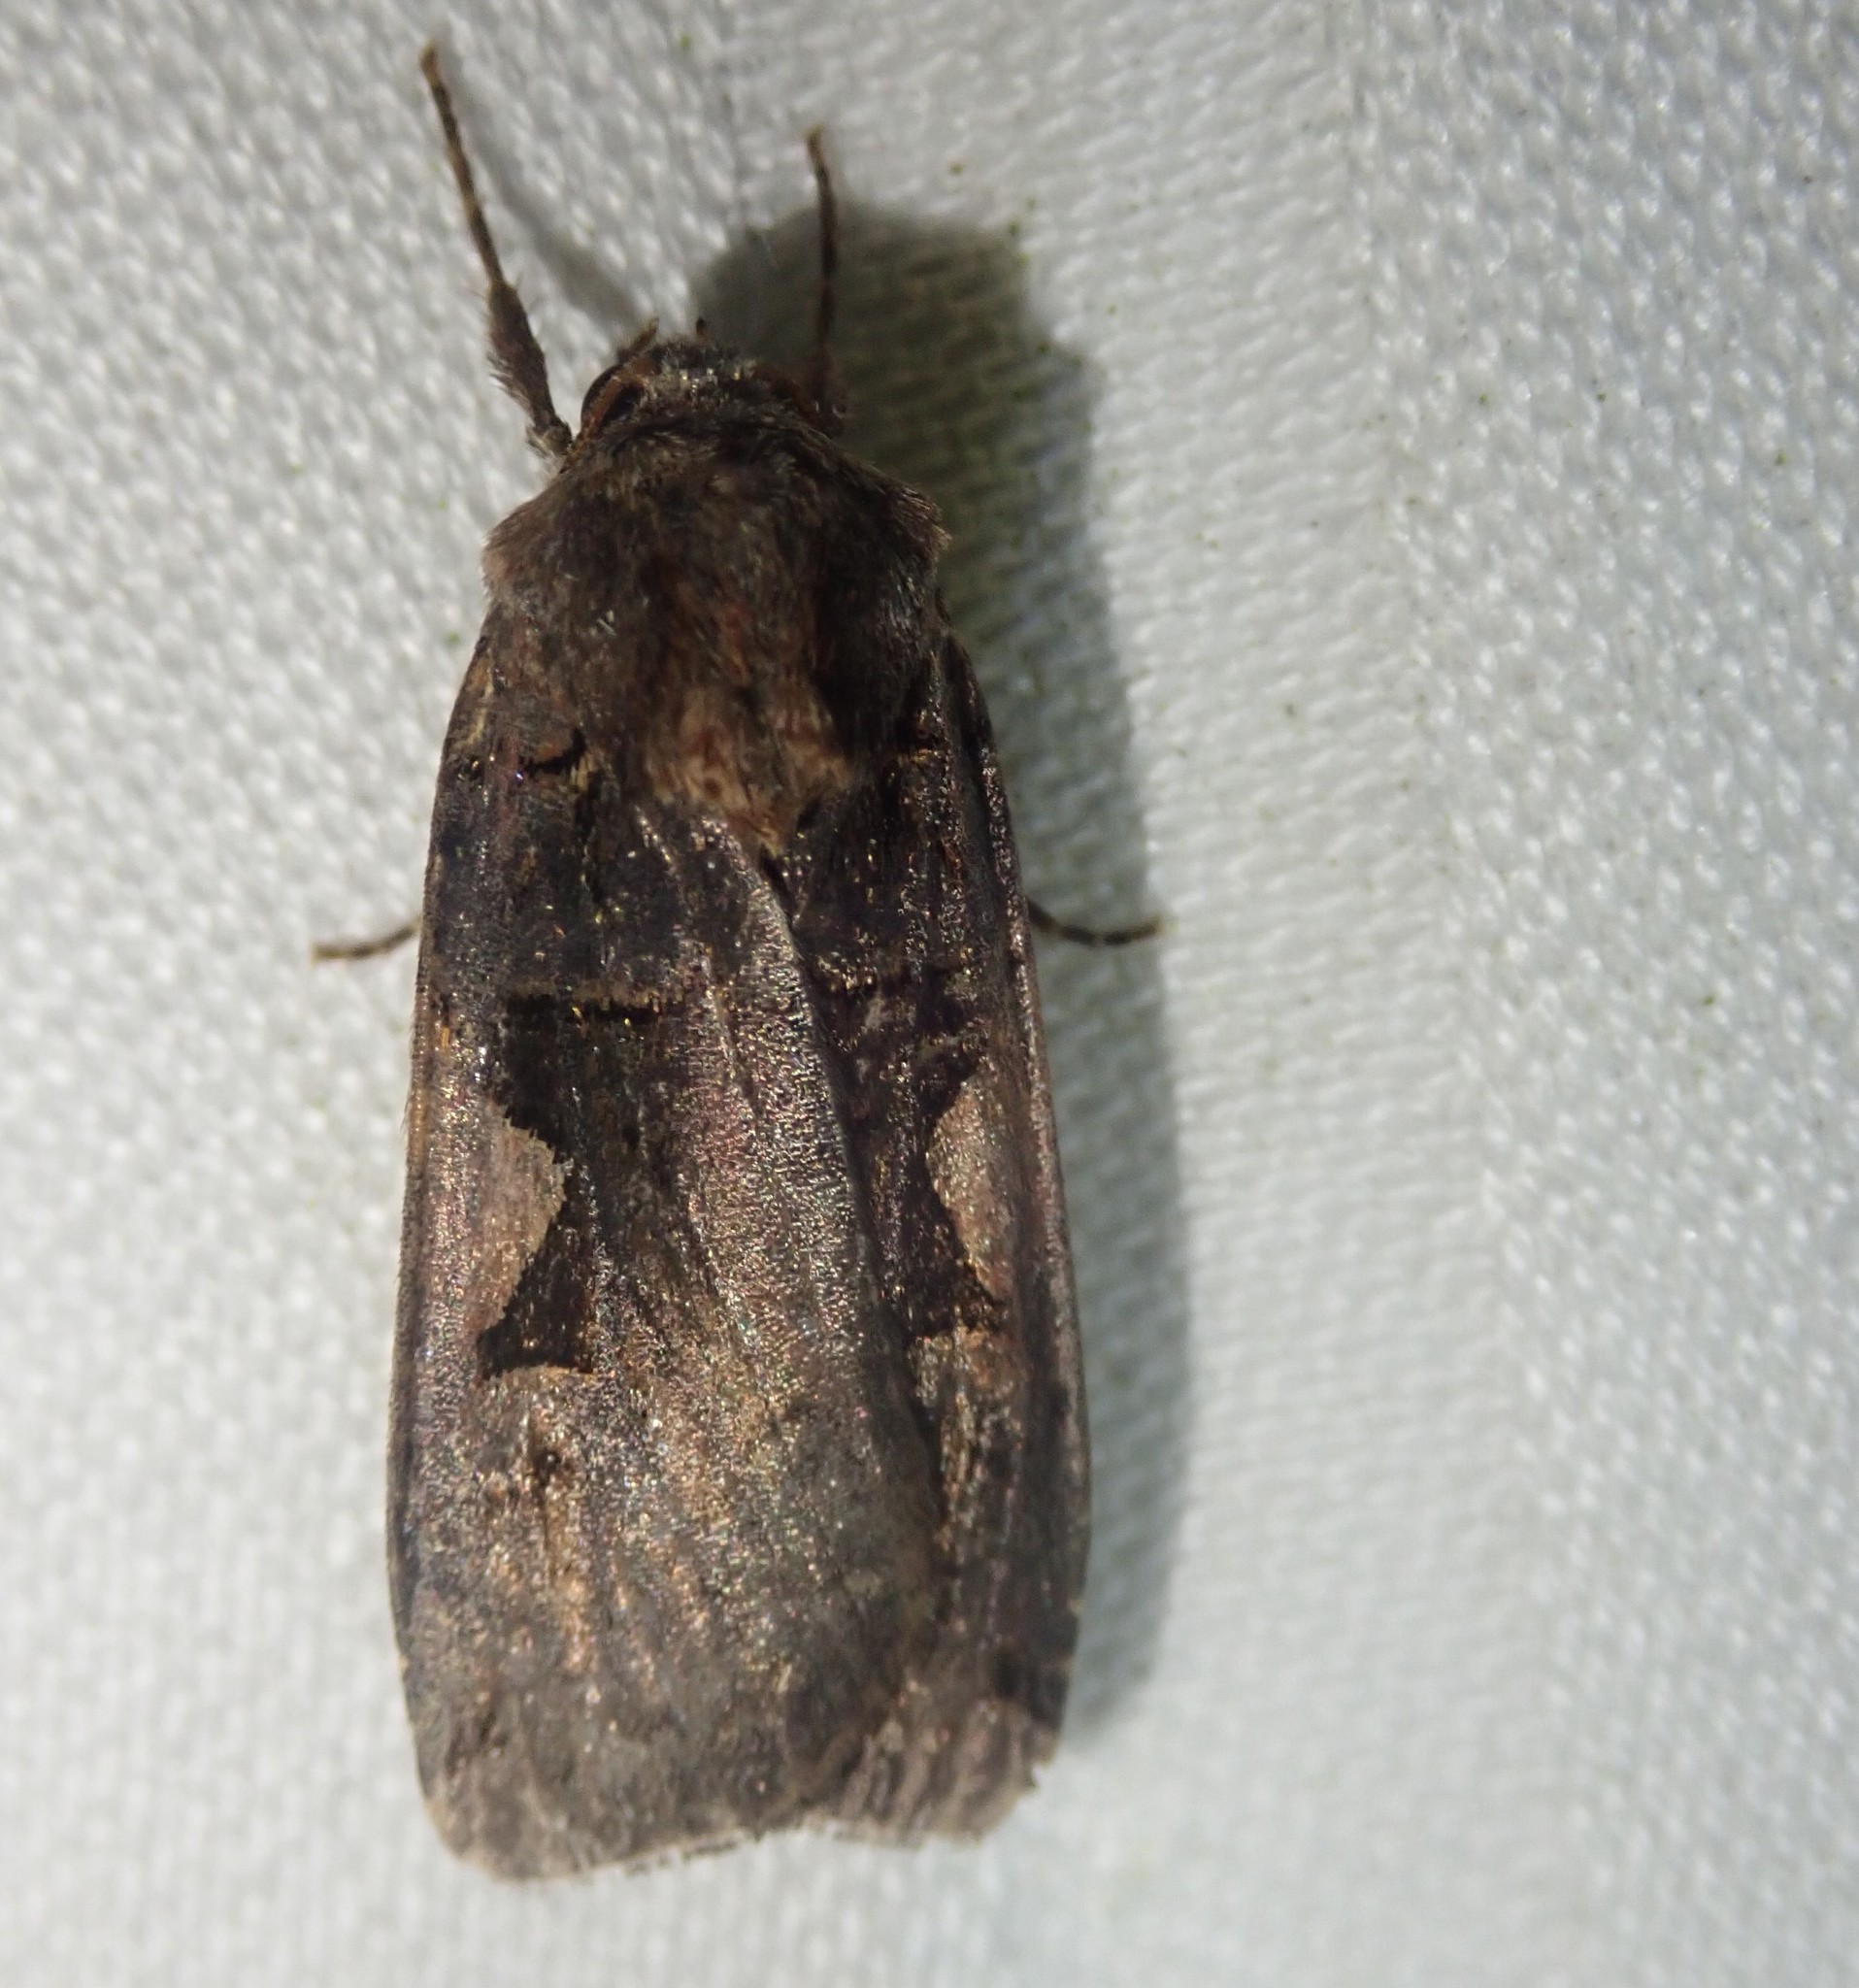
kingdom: Animalia
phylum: Arthropoda
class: Insecta
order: Lepidoptera
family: Noctuidae
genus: Xestia
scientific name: Xestia c-nigrum
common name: Setaceous hebrew character
